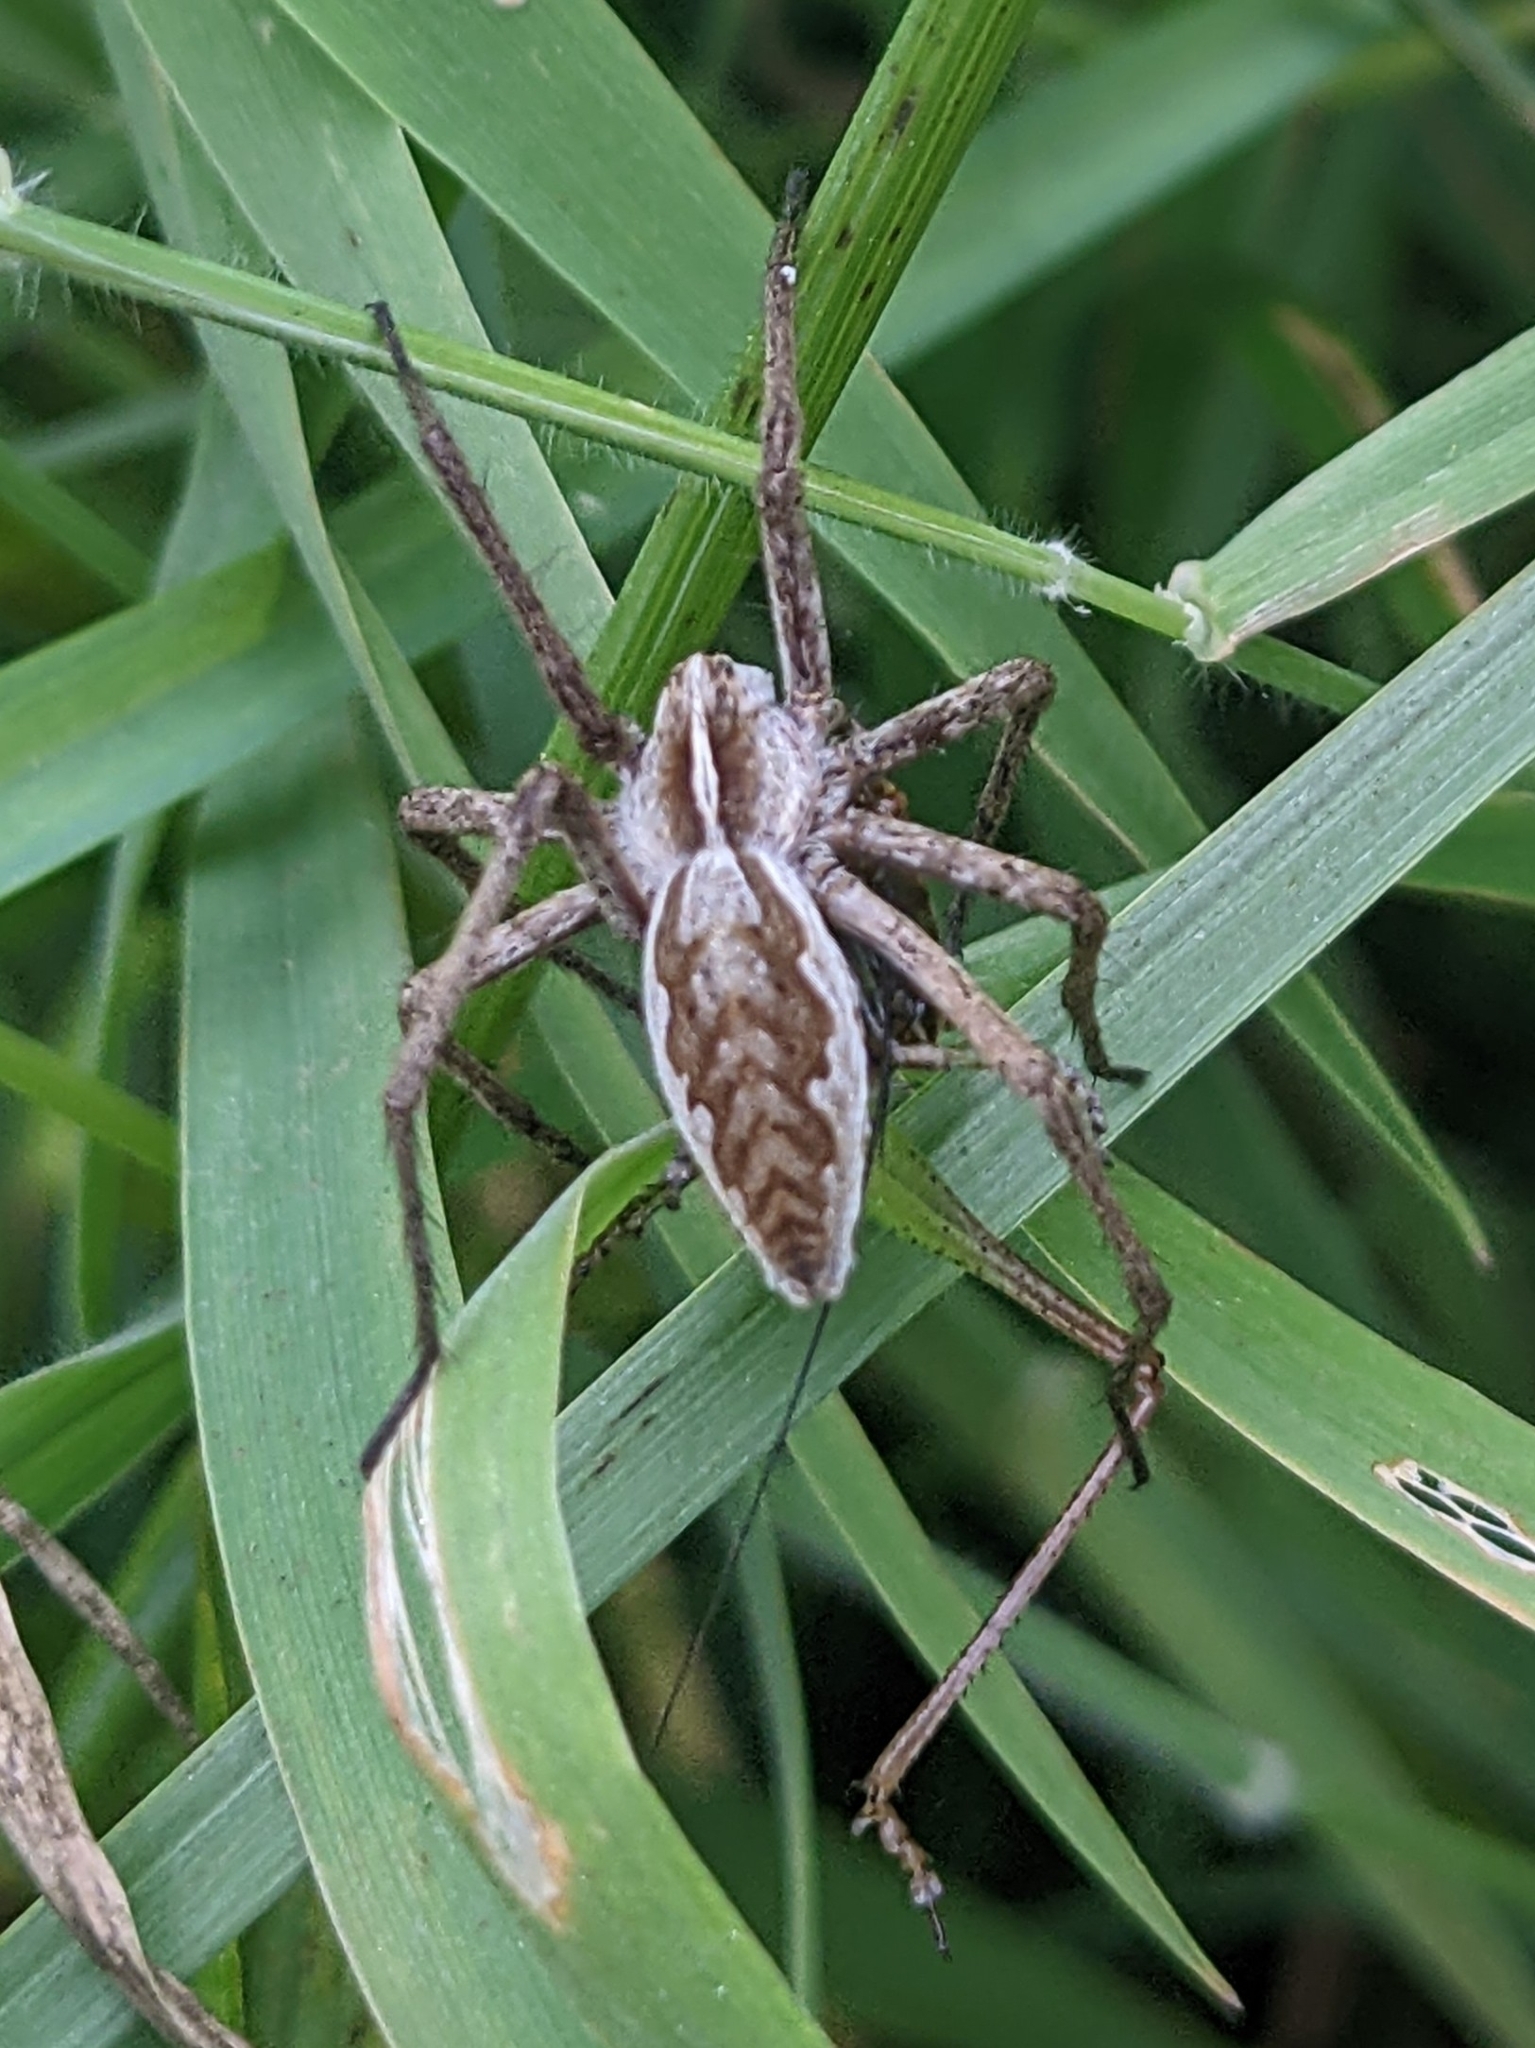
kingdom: Animalia
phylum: Arthropoda
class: Arachnida
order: Araneae
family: Pisauridae
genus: Pisaura
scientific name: Pisaura mirabilis
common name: Tent spider
